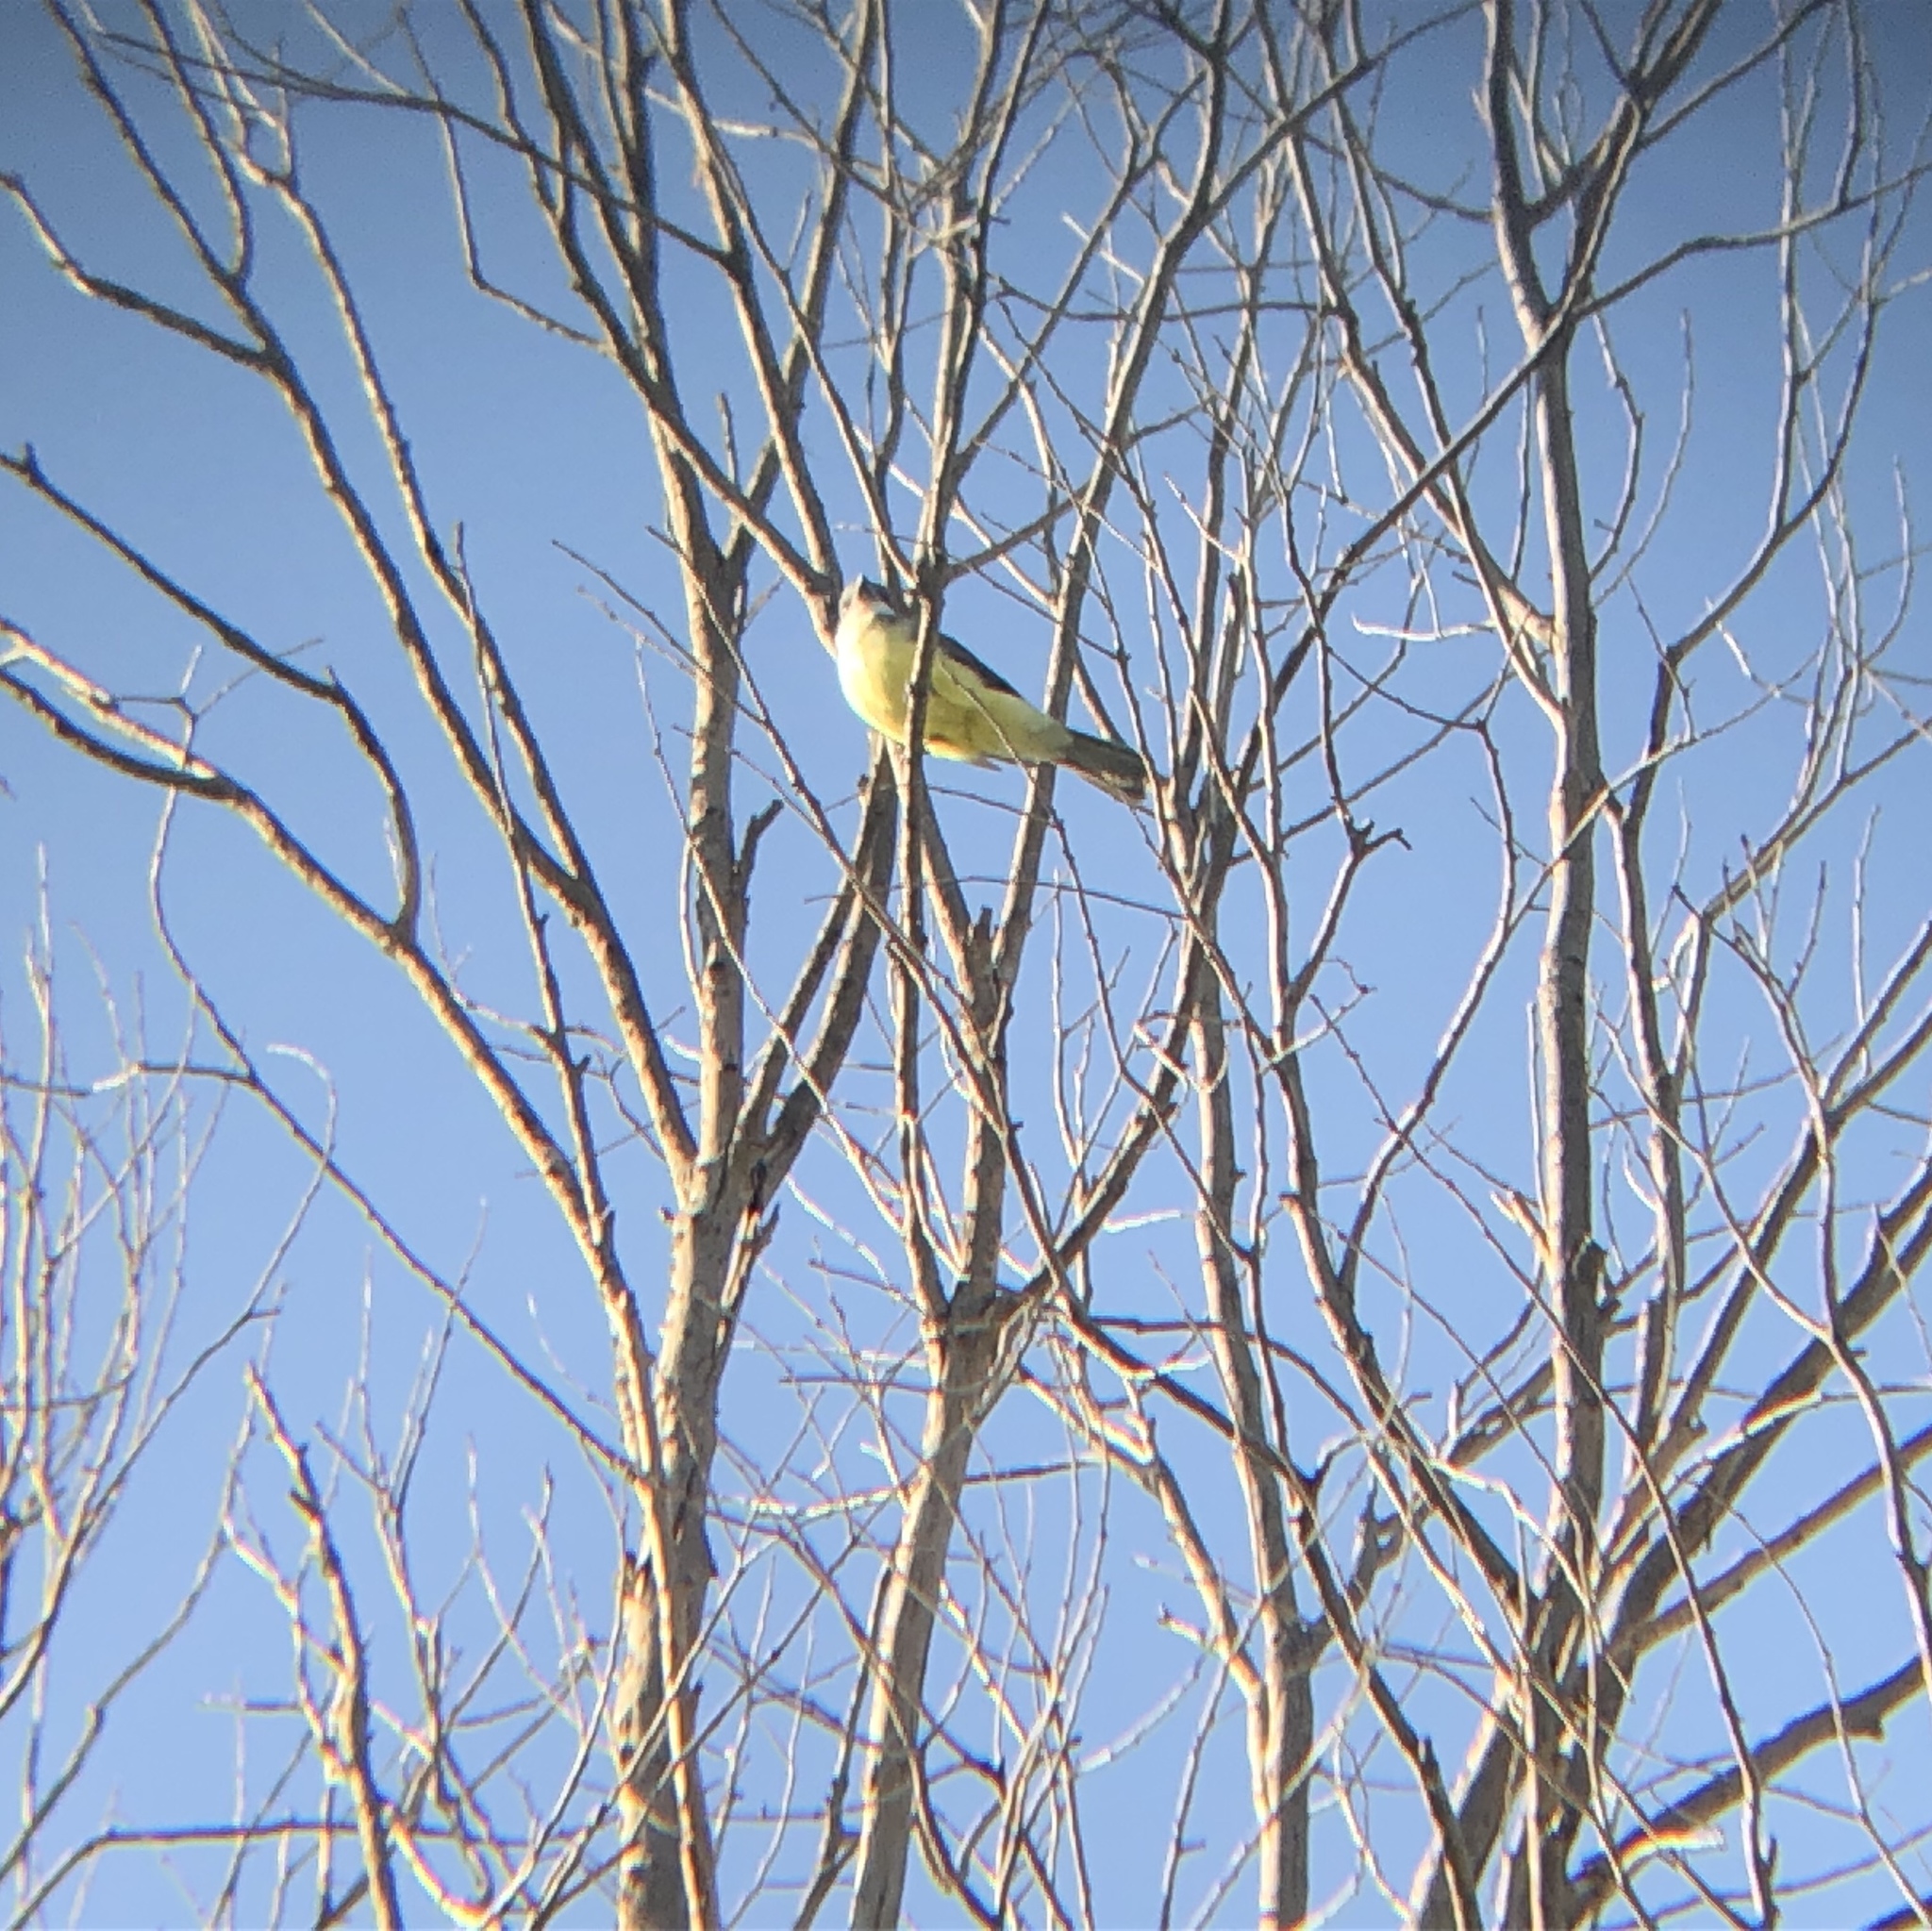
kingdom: Animalia
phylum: Chordata
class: Aves
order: Passeriformes
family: Tyrannidae
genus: Tyrannus
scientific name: Tyrannus crassirostris
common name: Thick-billed kingbird
